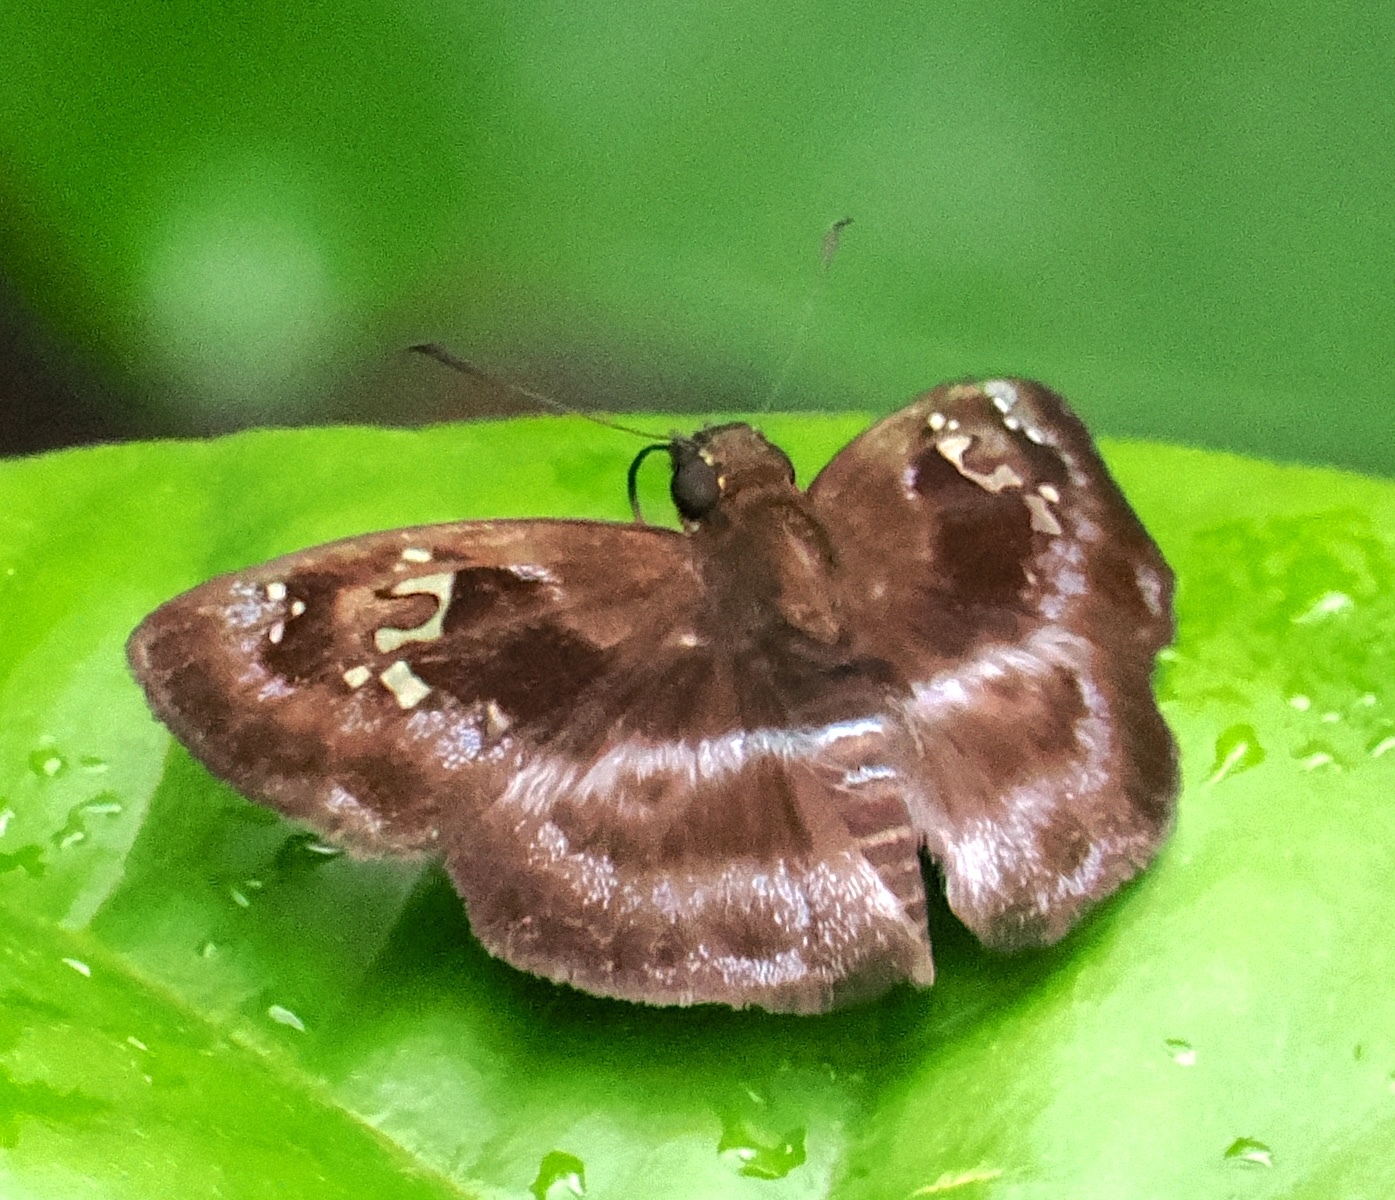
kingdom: Animalia
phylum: Arthropoda
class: Insecta
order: Lepidoptera
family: Hesperiidae
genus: Quadrus
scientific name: Quadrus cerialis
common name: Common blue-skipper
